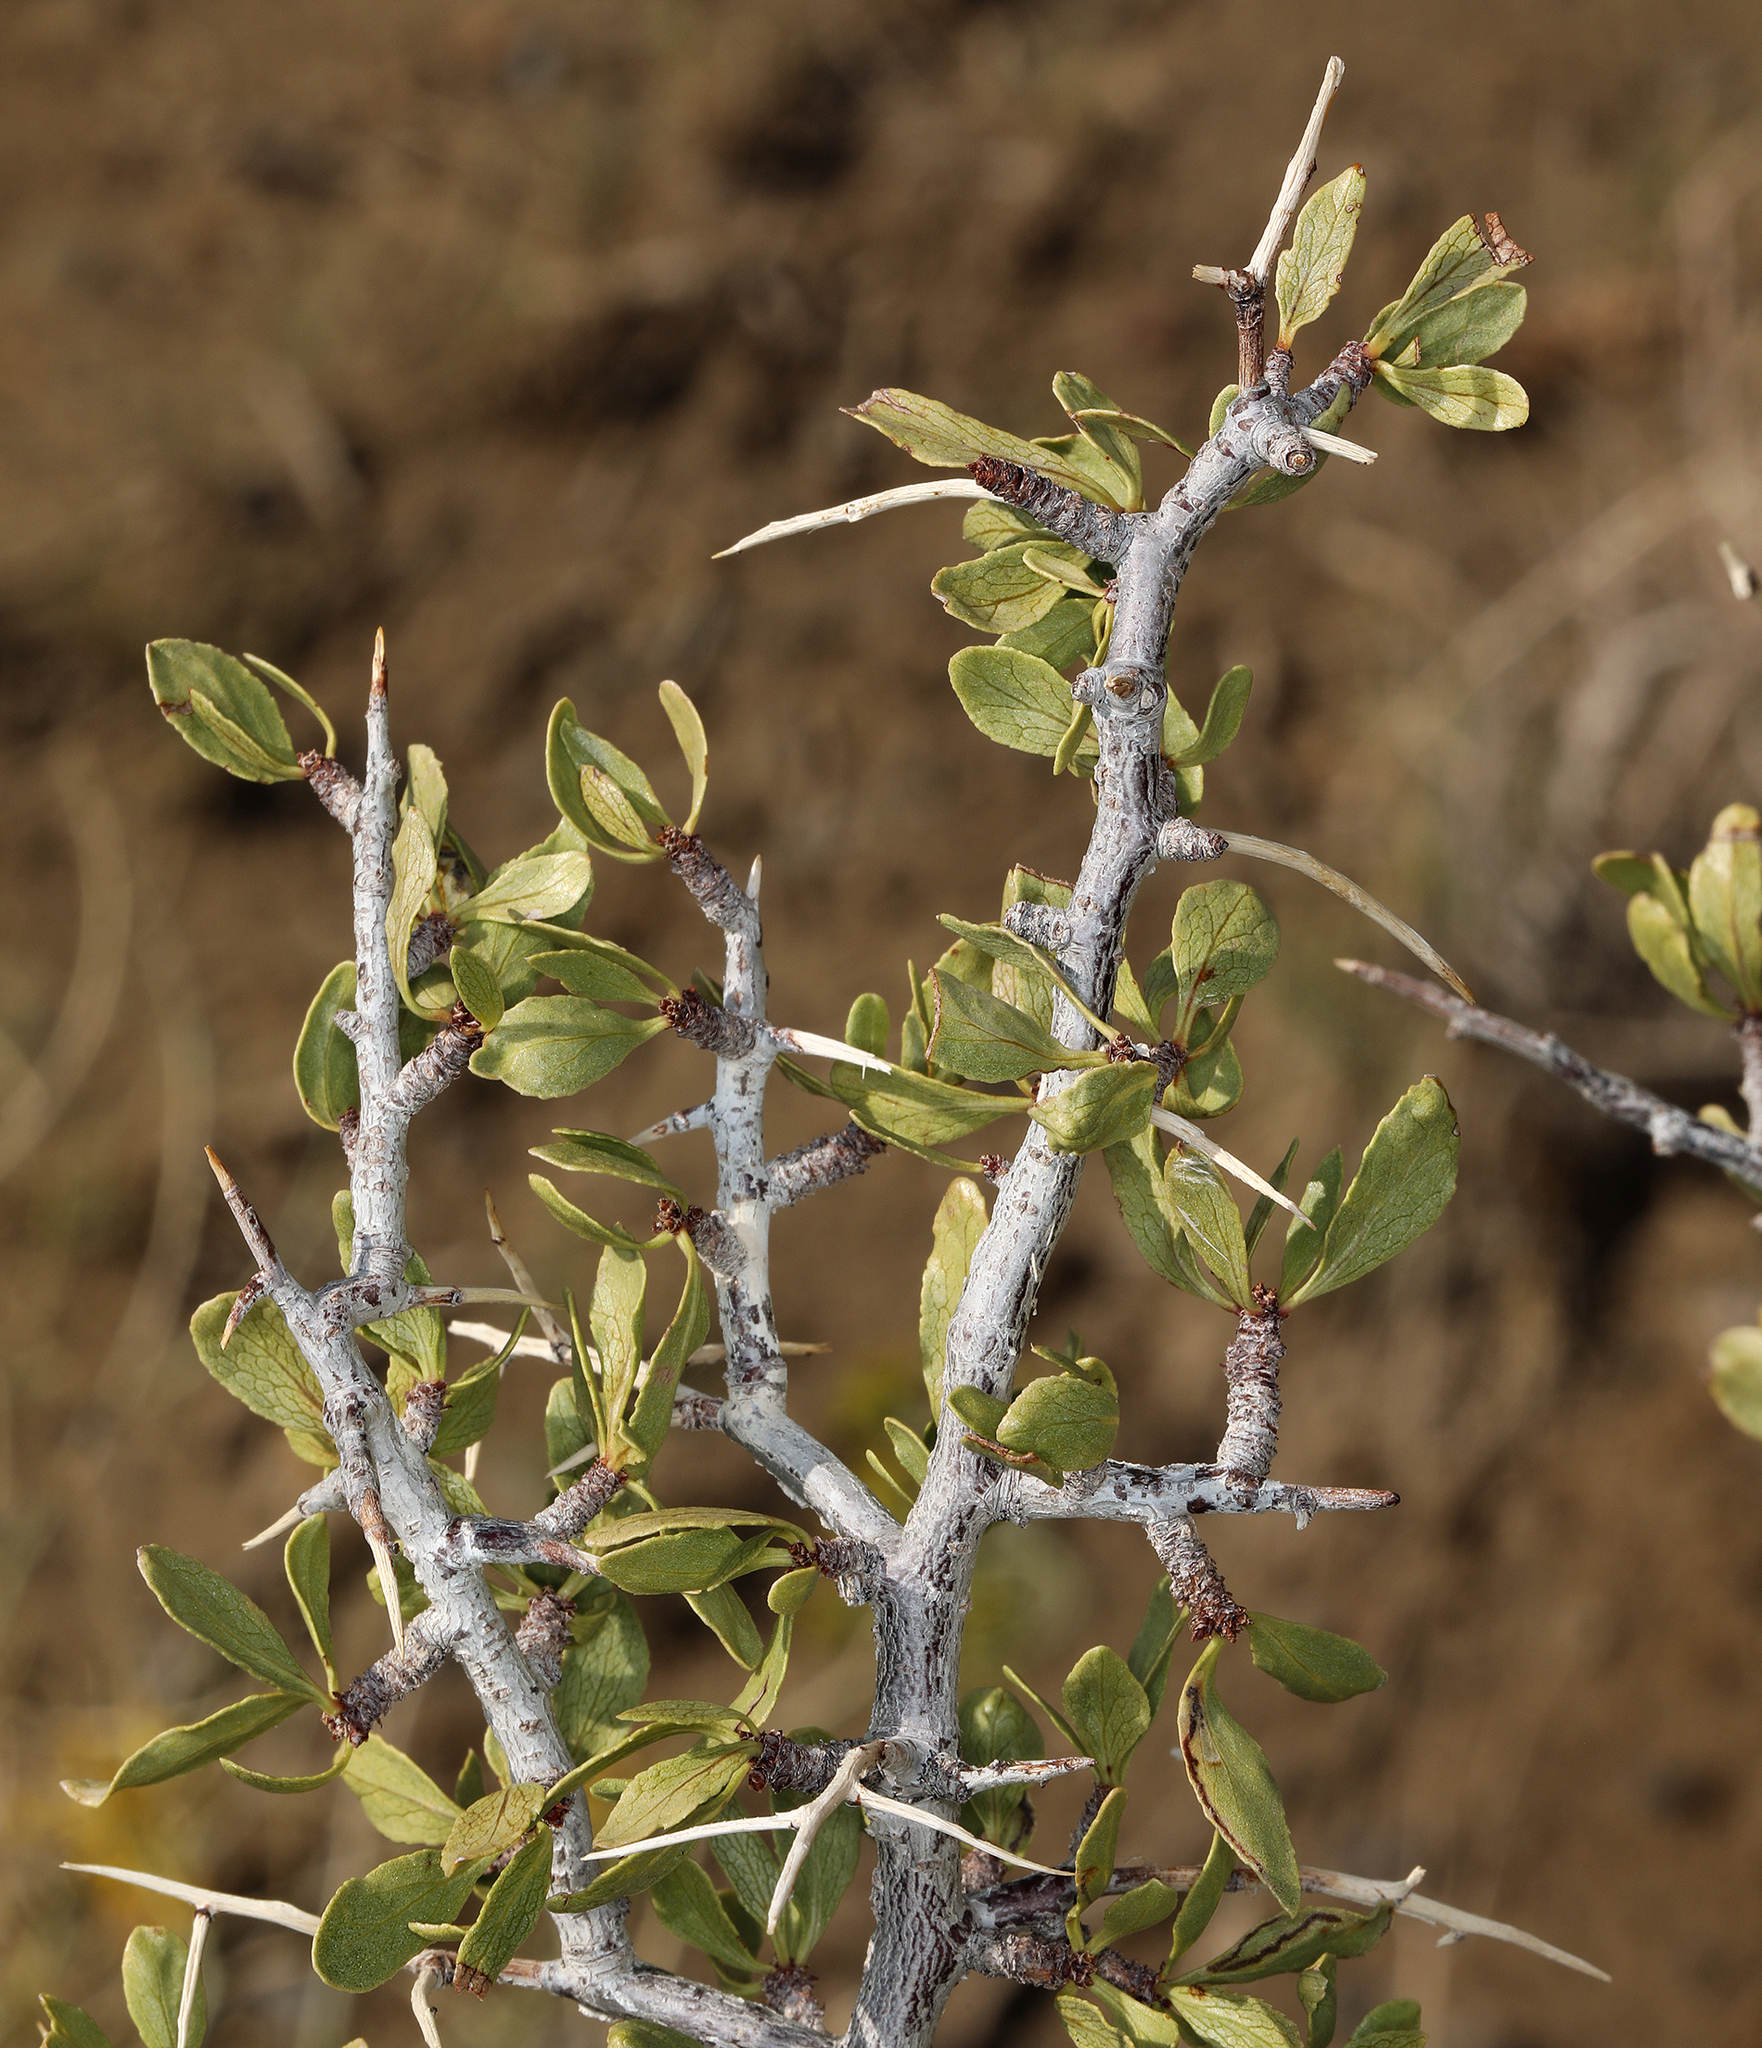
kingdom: Plantae
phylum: Tracheophyta
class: Magnoliopsida
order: Rosales
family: Rosaceae
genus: Prunus
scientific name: Prunus andersonii
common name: Desert peach
